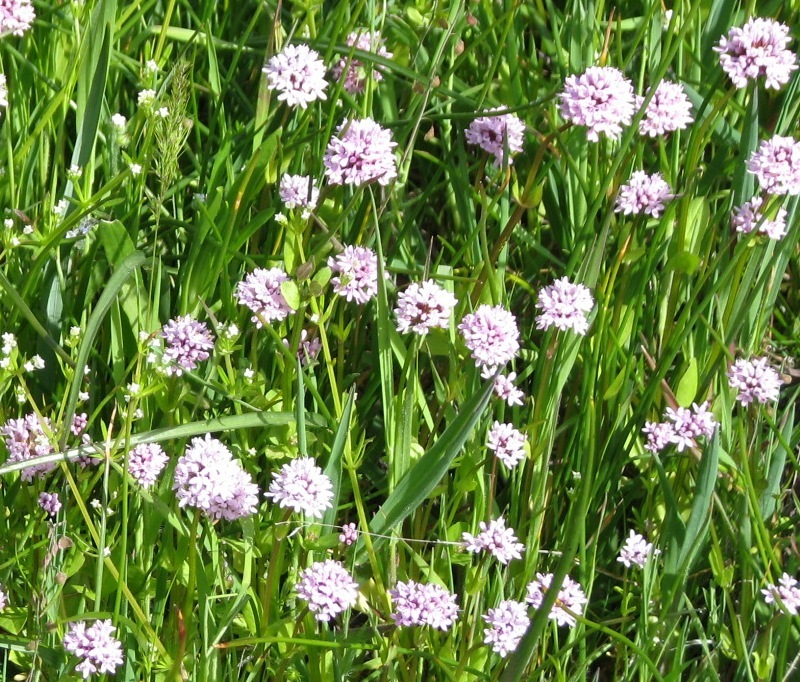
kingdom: Plantae
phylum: Tracheophyta
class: Magnoliopsida
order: Dipsacales
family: Caprifoliaceae
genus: Plectritis
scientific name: Plectritis congesta
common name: Pink plectritis
